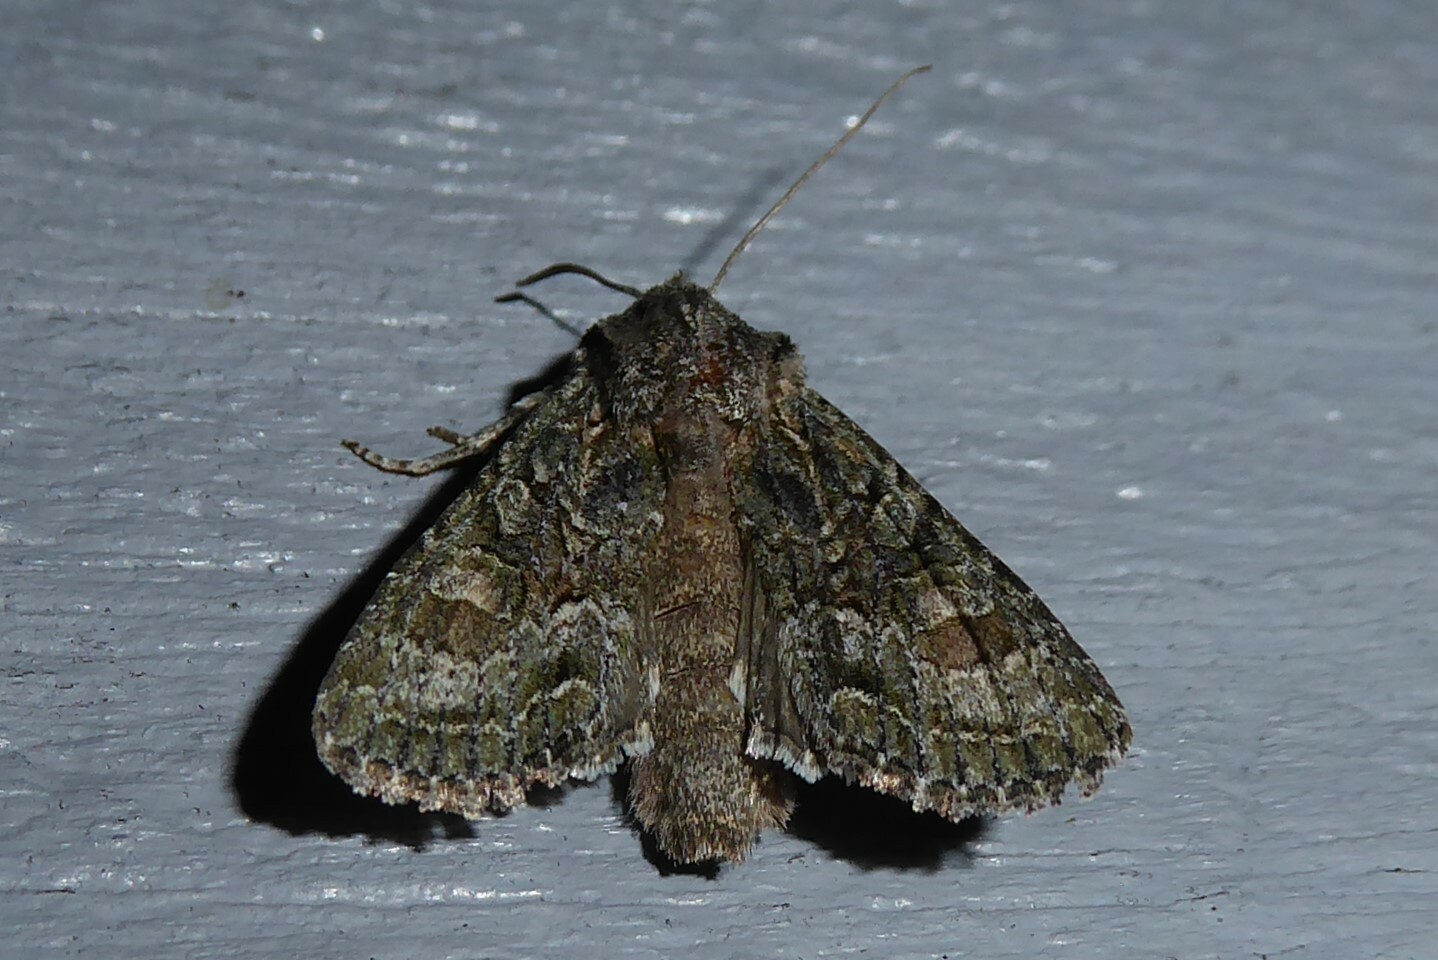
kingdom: Animalia
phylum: Arthropoda
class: Insecta
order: Lepidoptera
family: Noctuidae
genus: Ichneutica
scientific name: Ichneutica mutans
